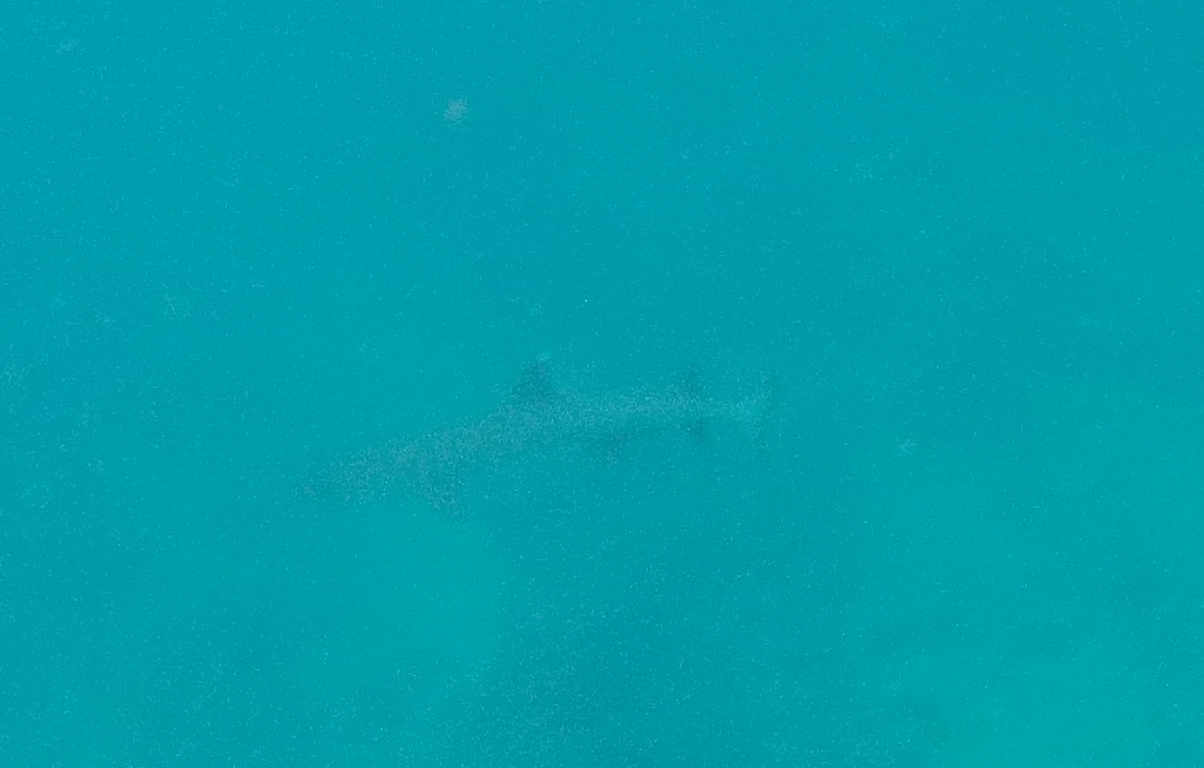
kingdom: Animalia
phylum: Chordata
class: Elasmobranchii
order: Carcharhiniformes
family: Carcharhinidae
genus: Triaenodon
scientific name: Triaenodon obesus
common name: Whitetip reef shark
